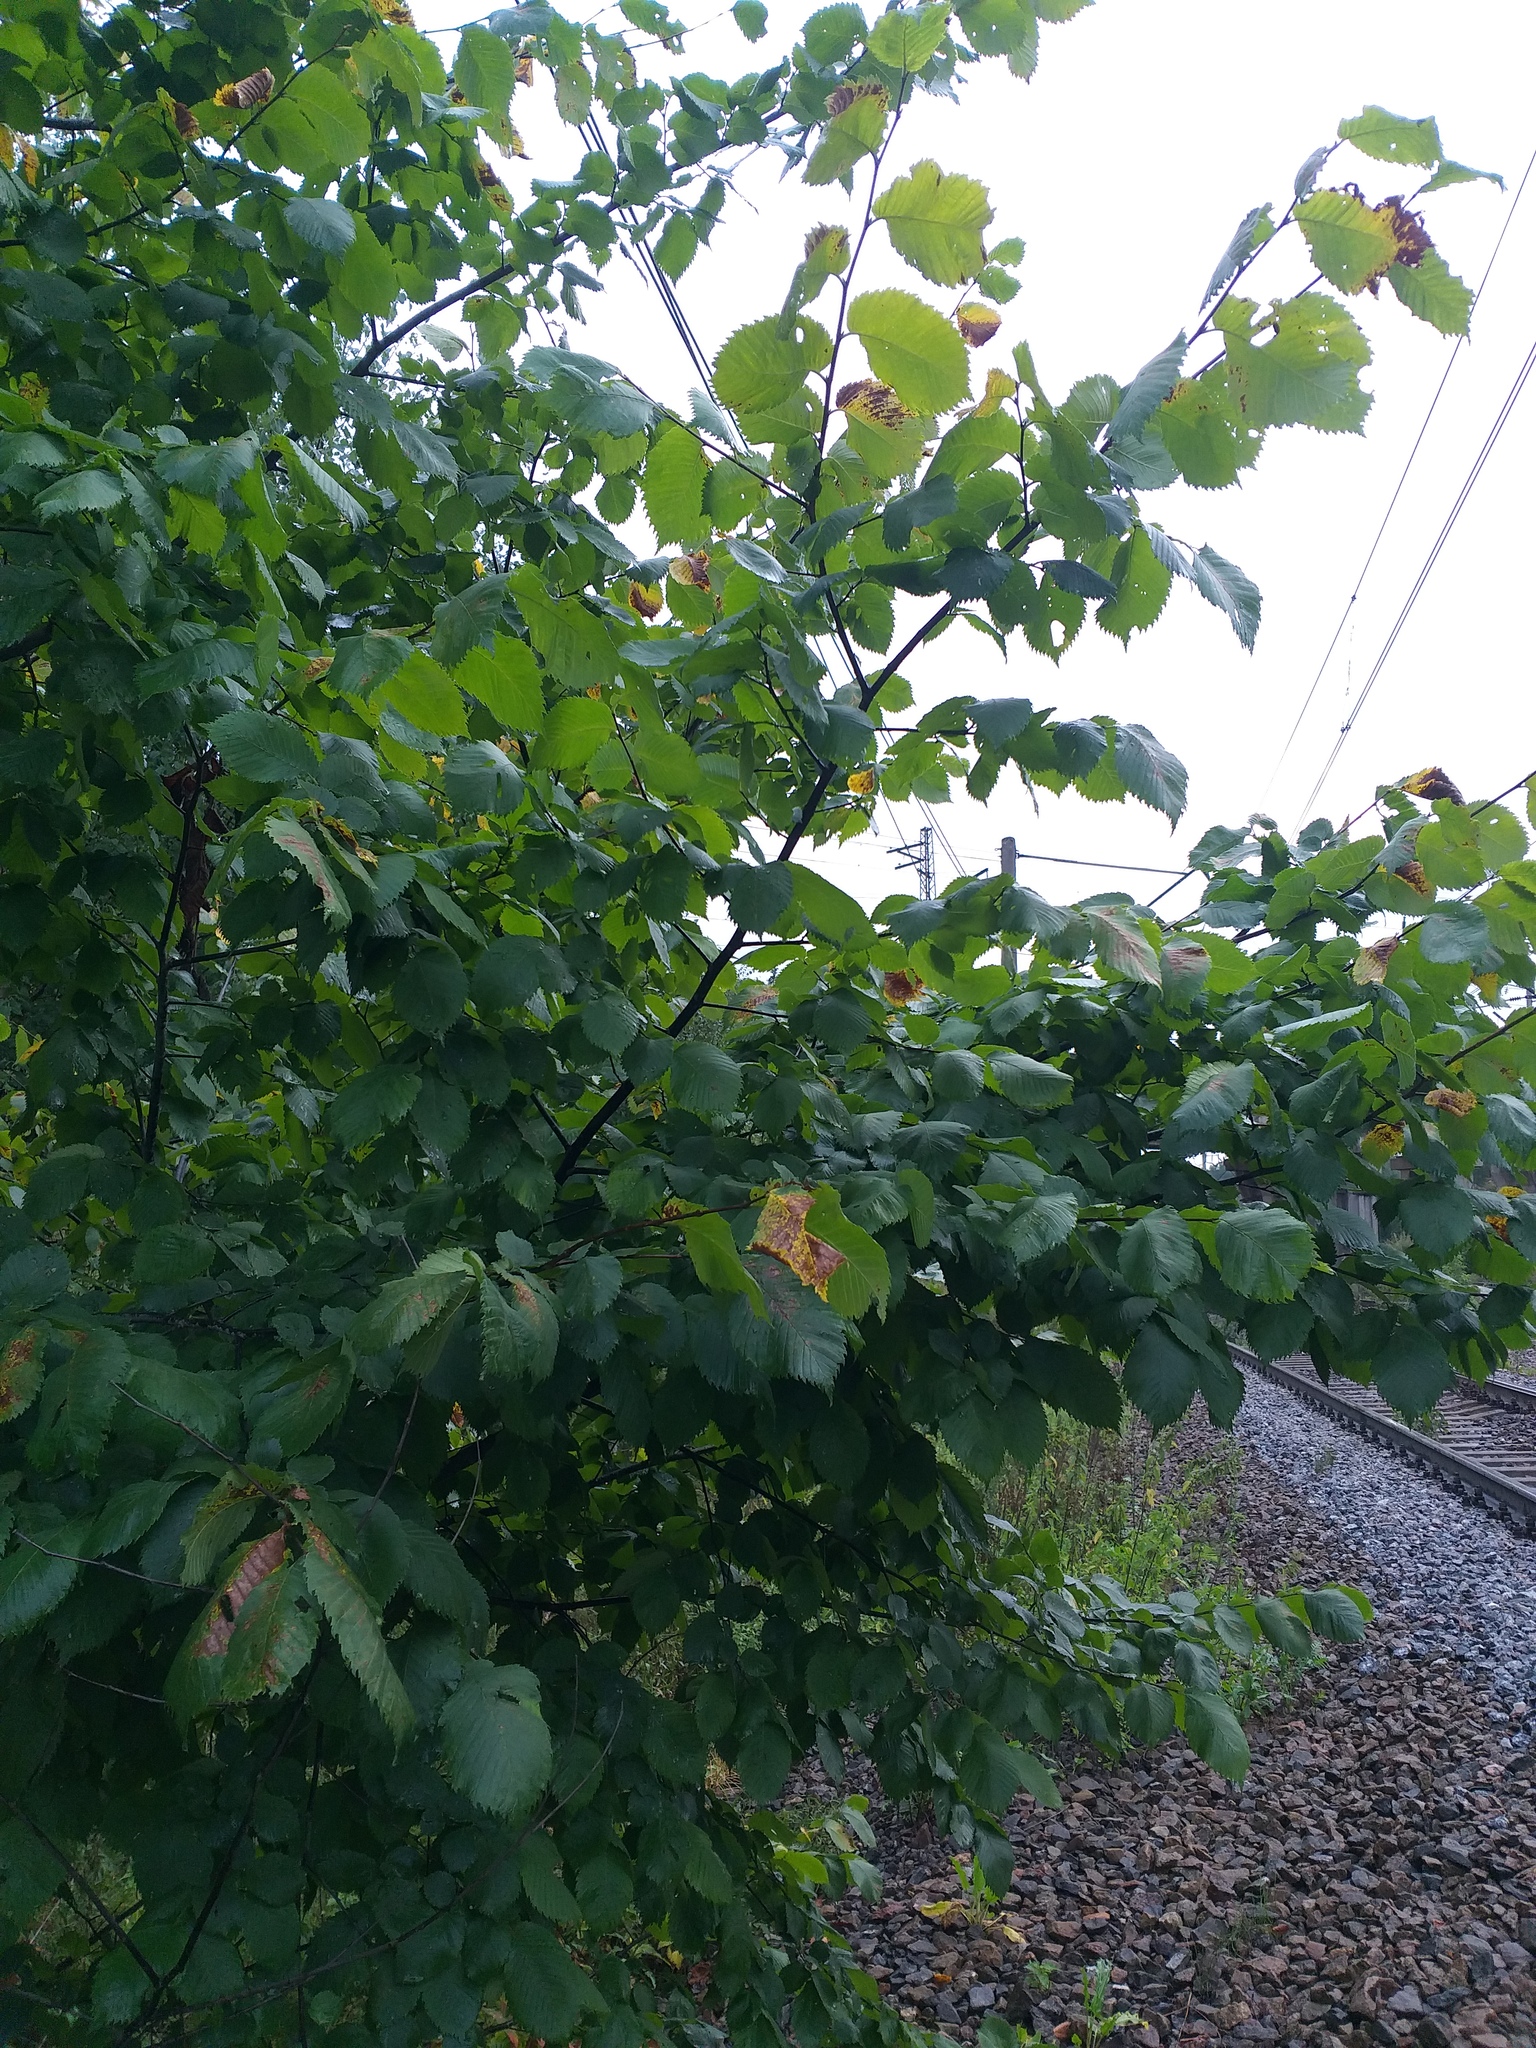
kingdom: Plantae
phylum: Tracheophyta
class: Magnoliopsida
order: Rosales
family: Ulmaceae
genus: Ulmus
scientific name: Ulmus laevis
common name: European white-elm
